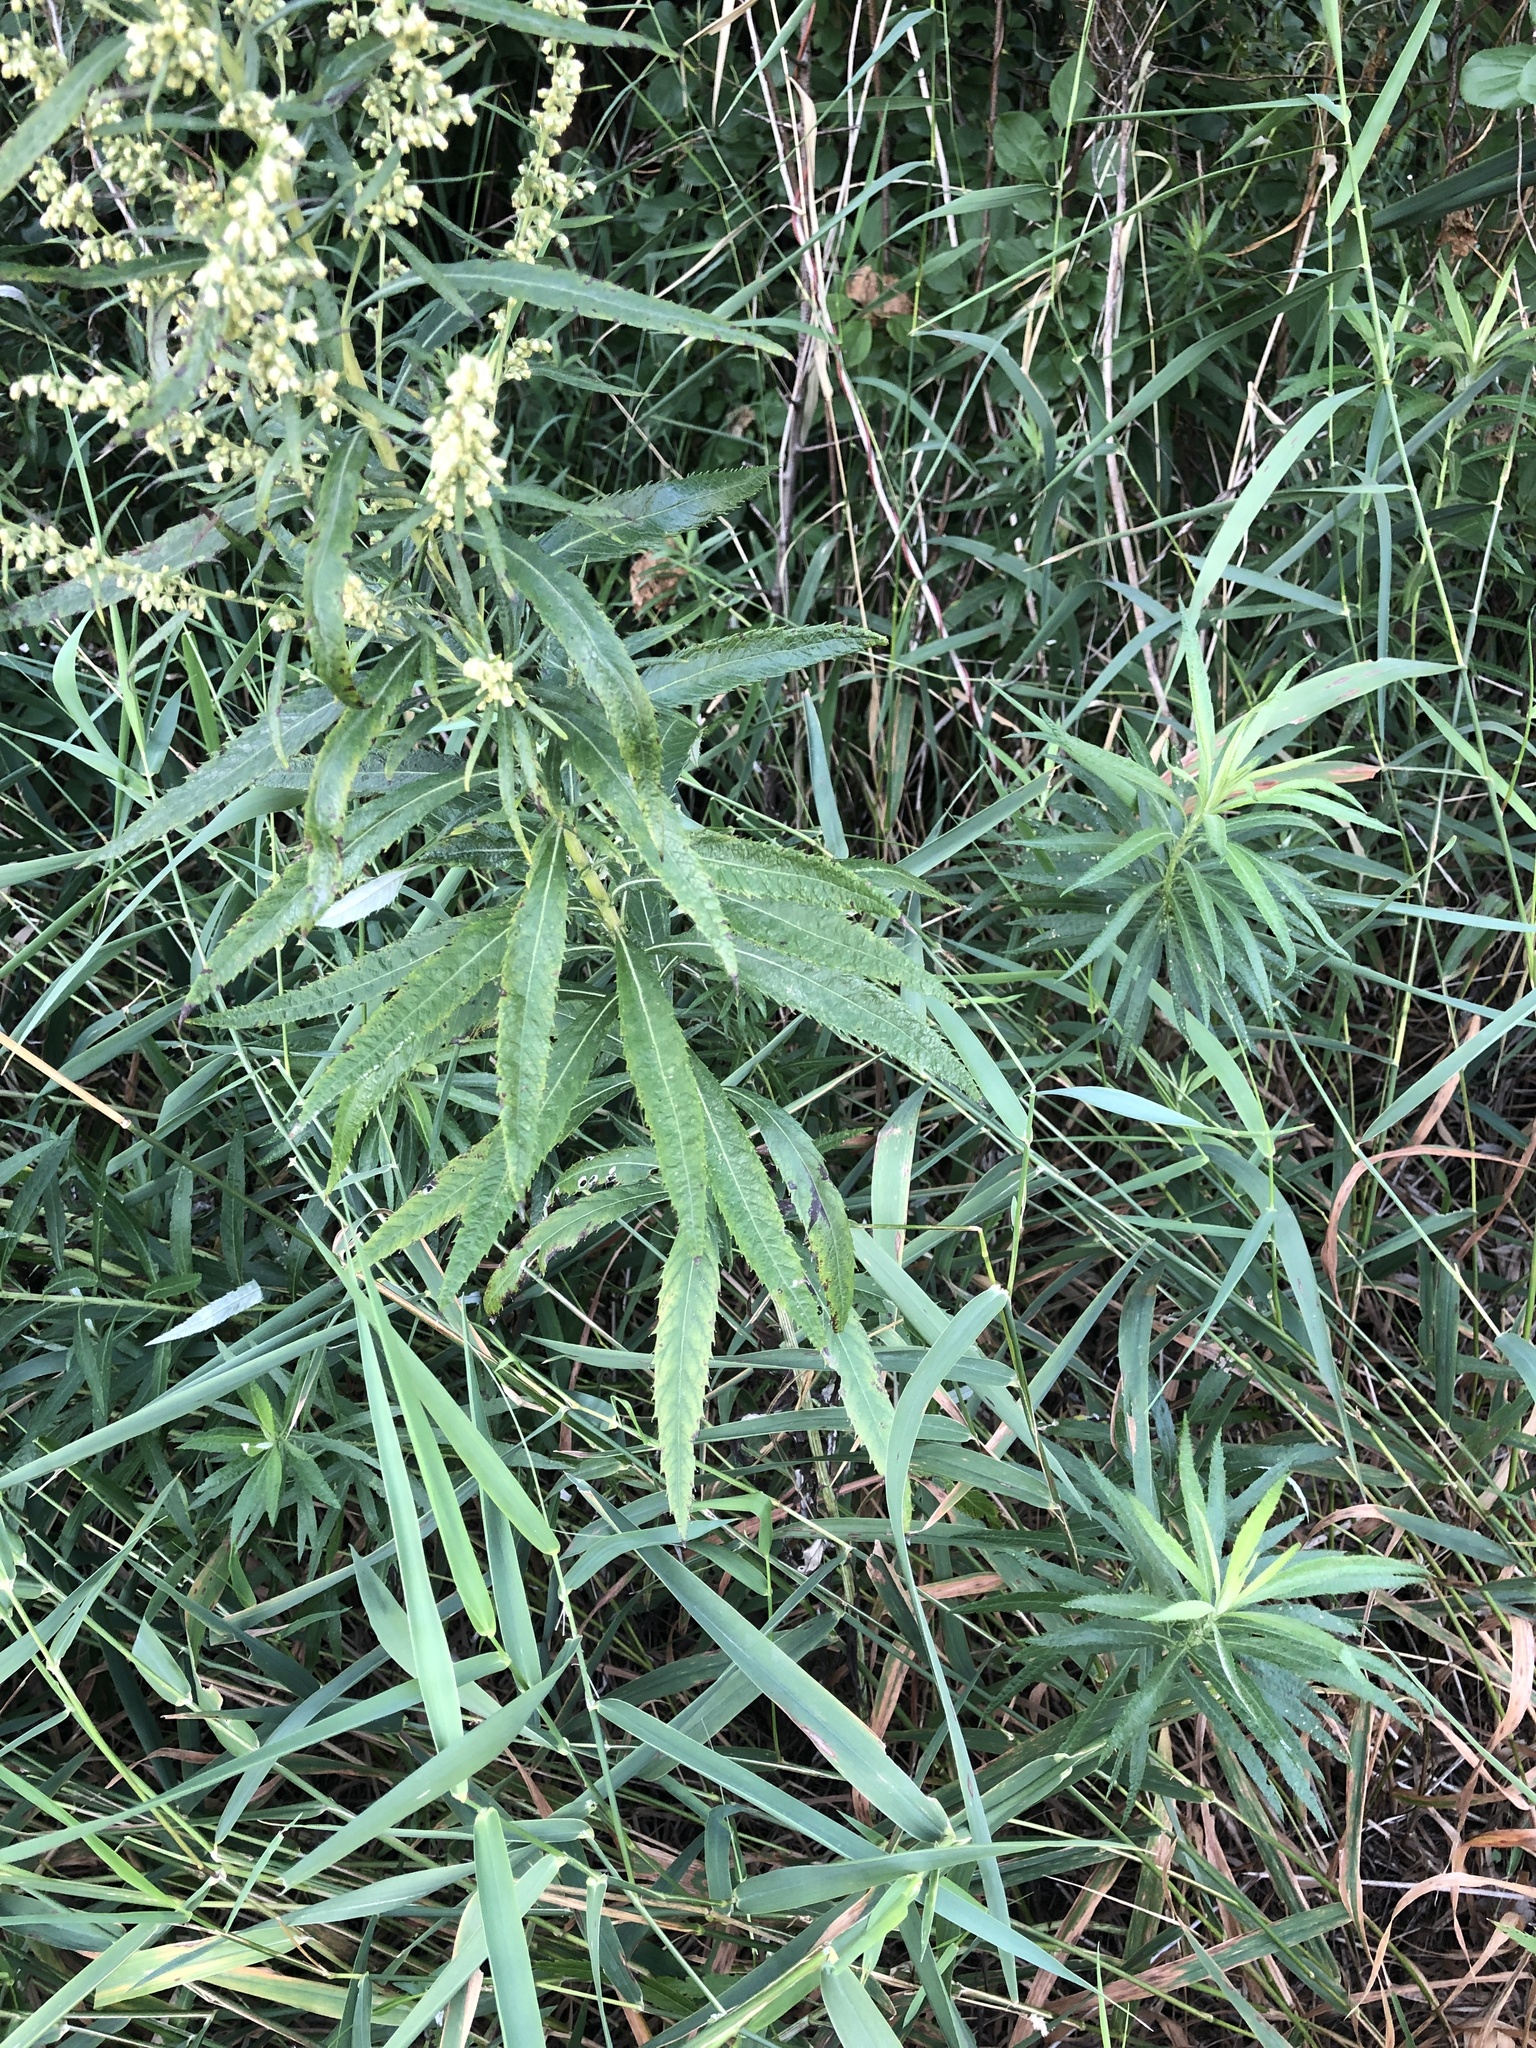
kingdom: Plantae
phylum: Tracheophyta
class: Magnoliopsida
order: Asterales
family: Asteraceae
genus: Artemisia
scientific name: Artemisia serrata
